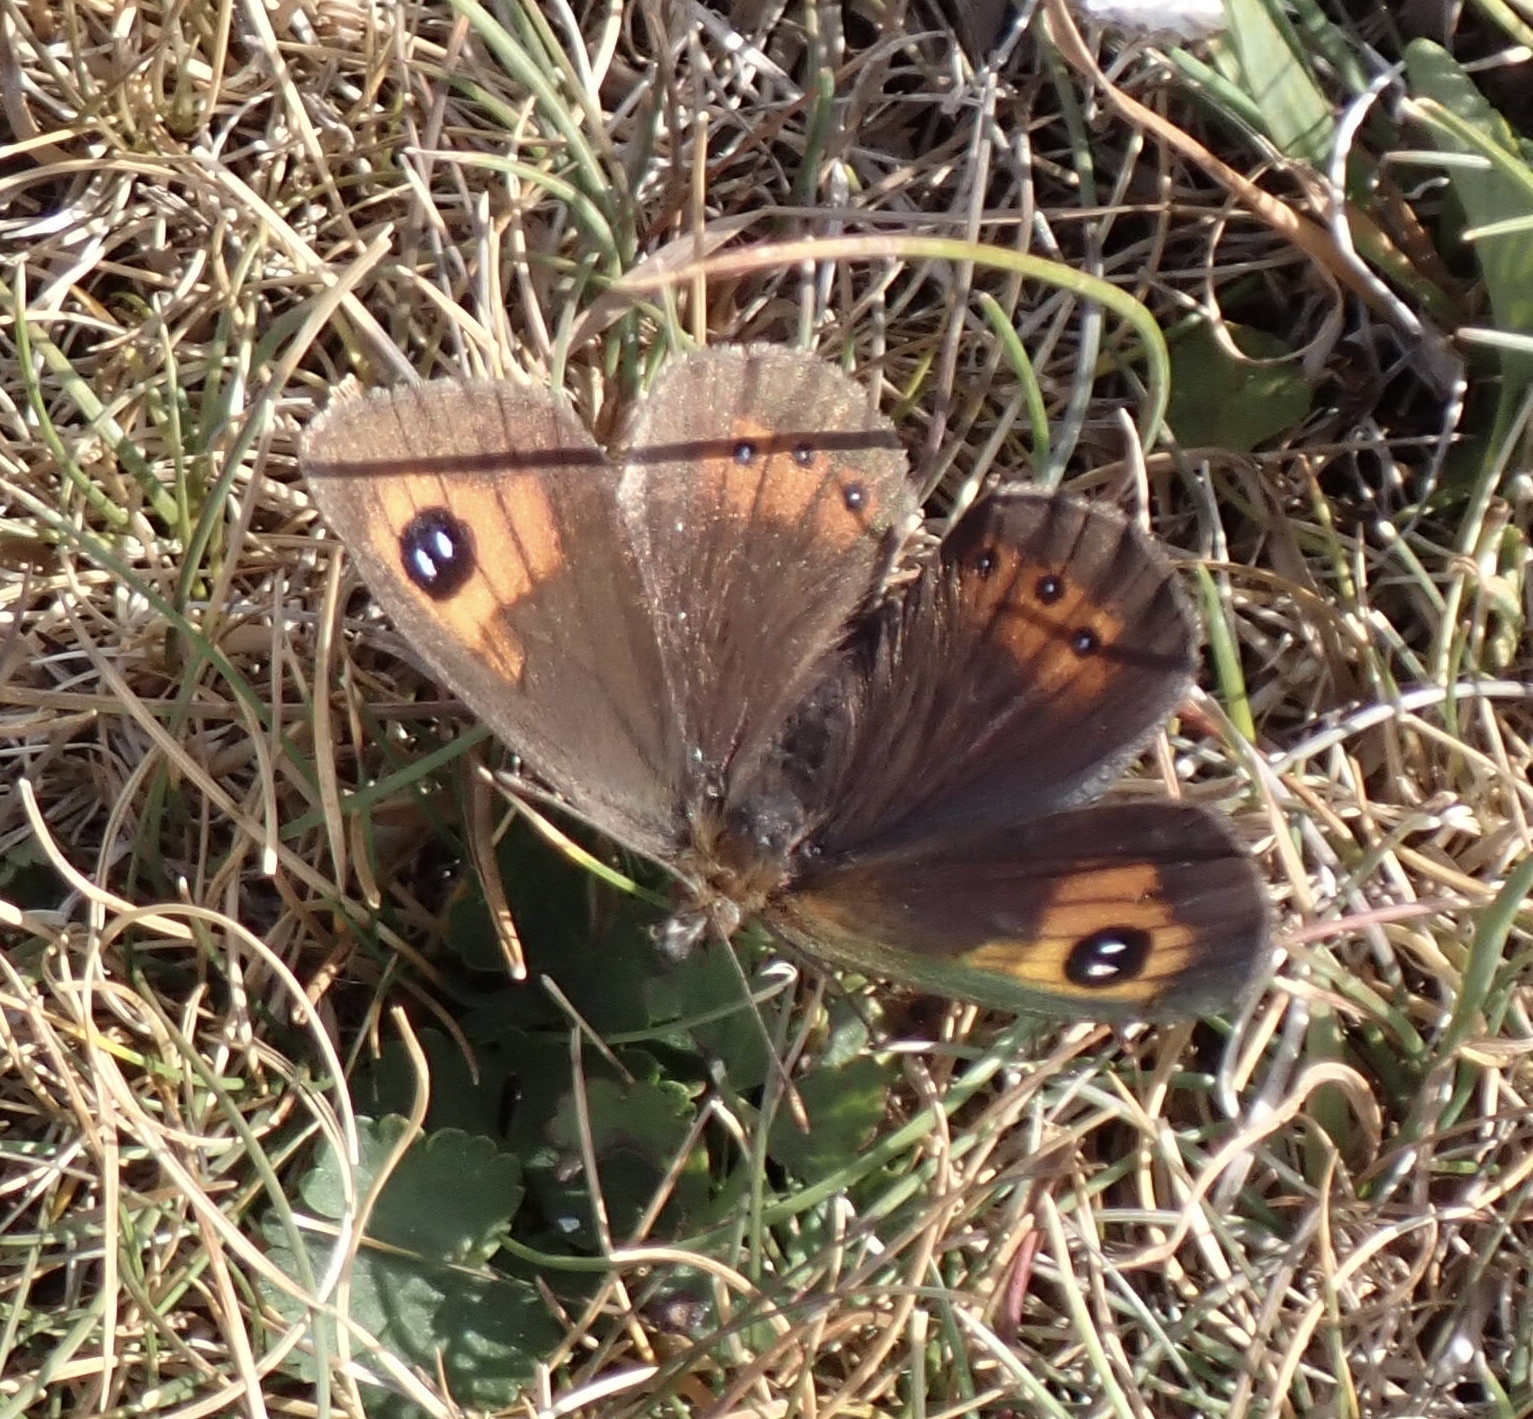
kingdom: Animalia
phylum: Arthropoda
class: Insecta
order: Lepidoptera
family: Nymphalidae
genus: Erebia
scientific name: Erebia tyndarus
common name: Swiss brassy ringlet
